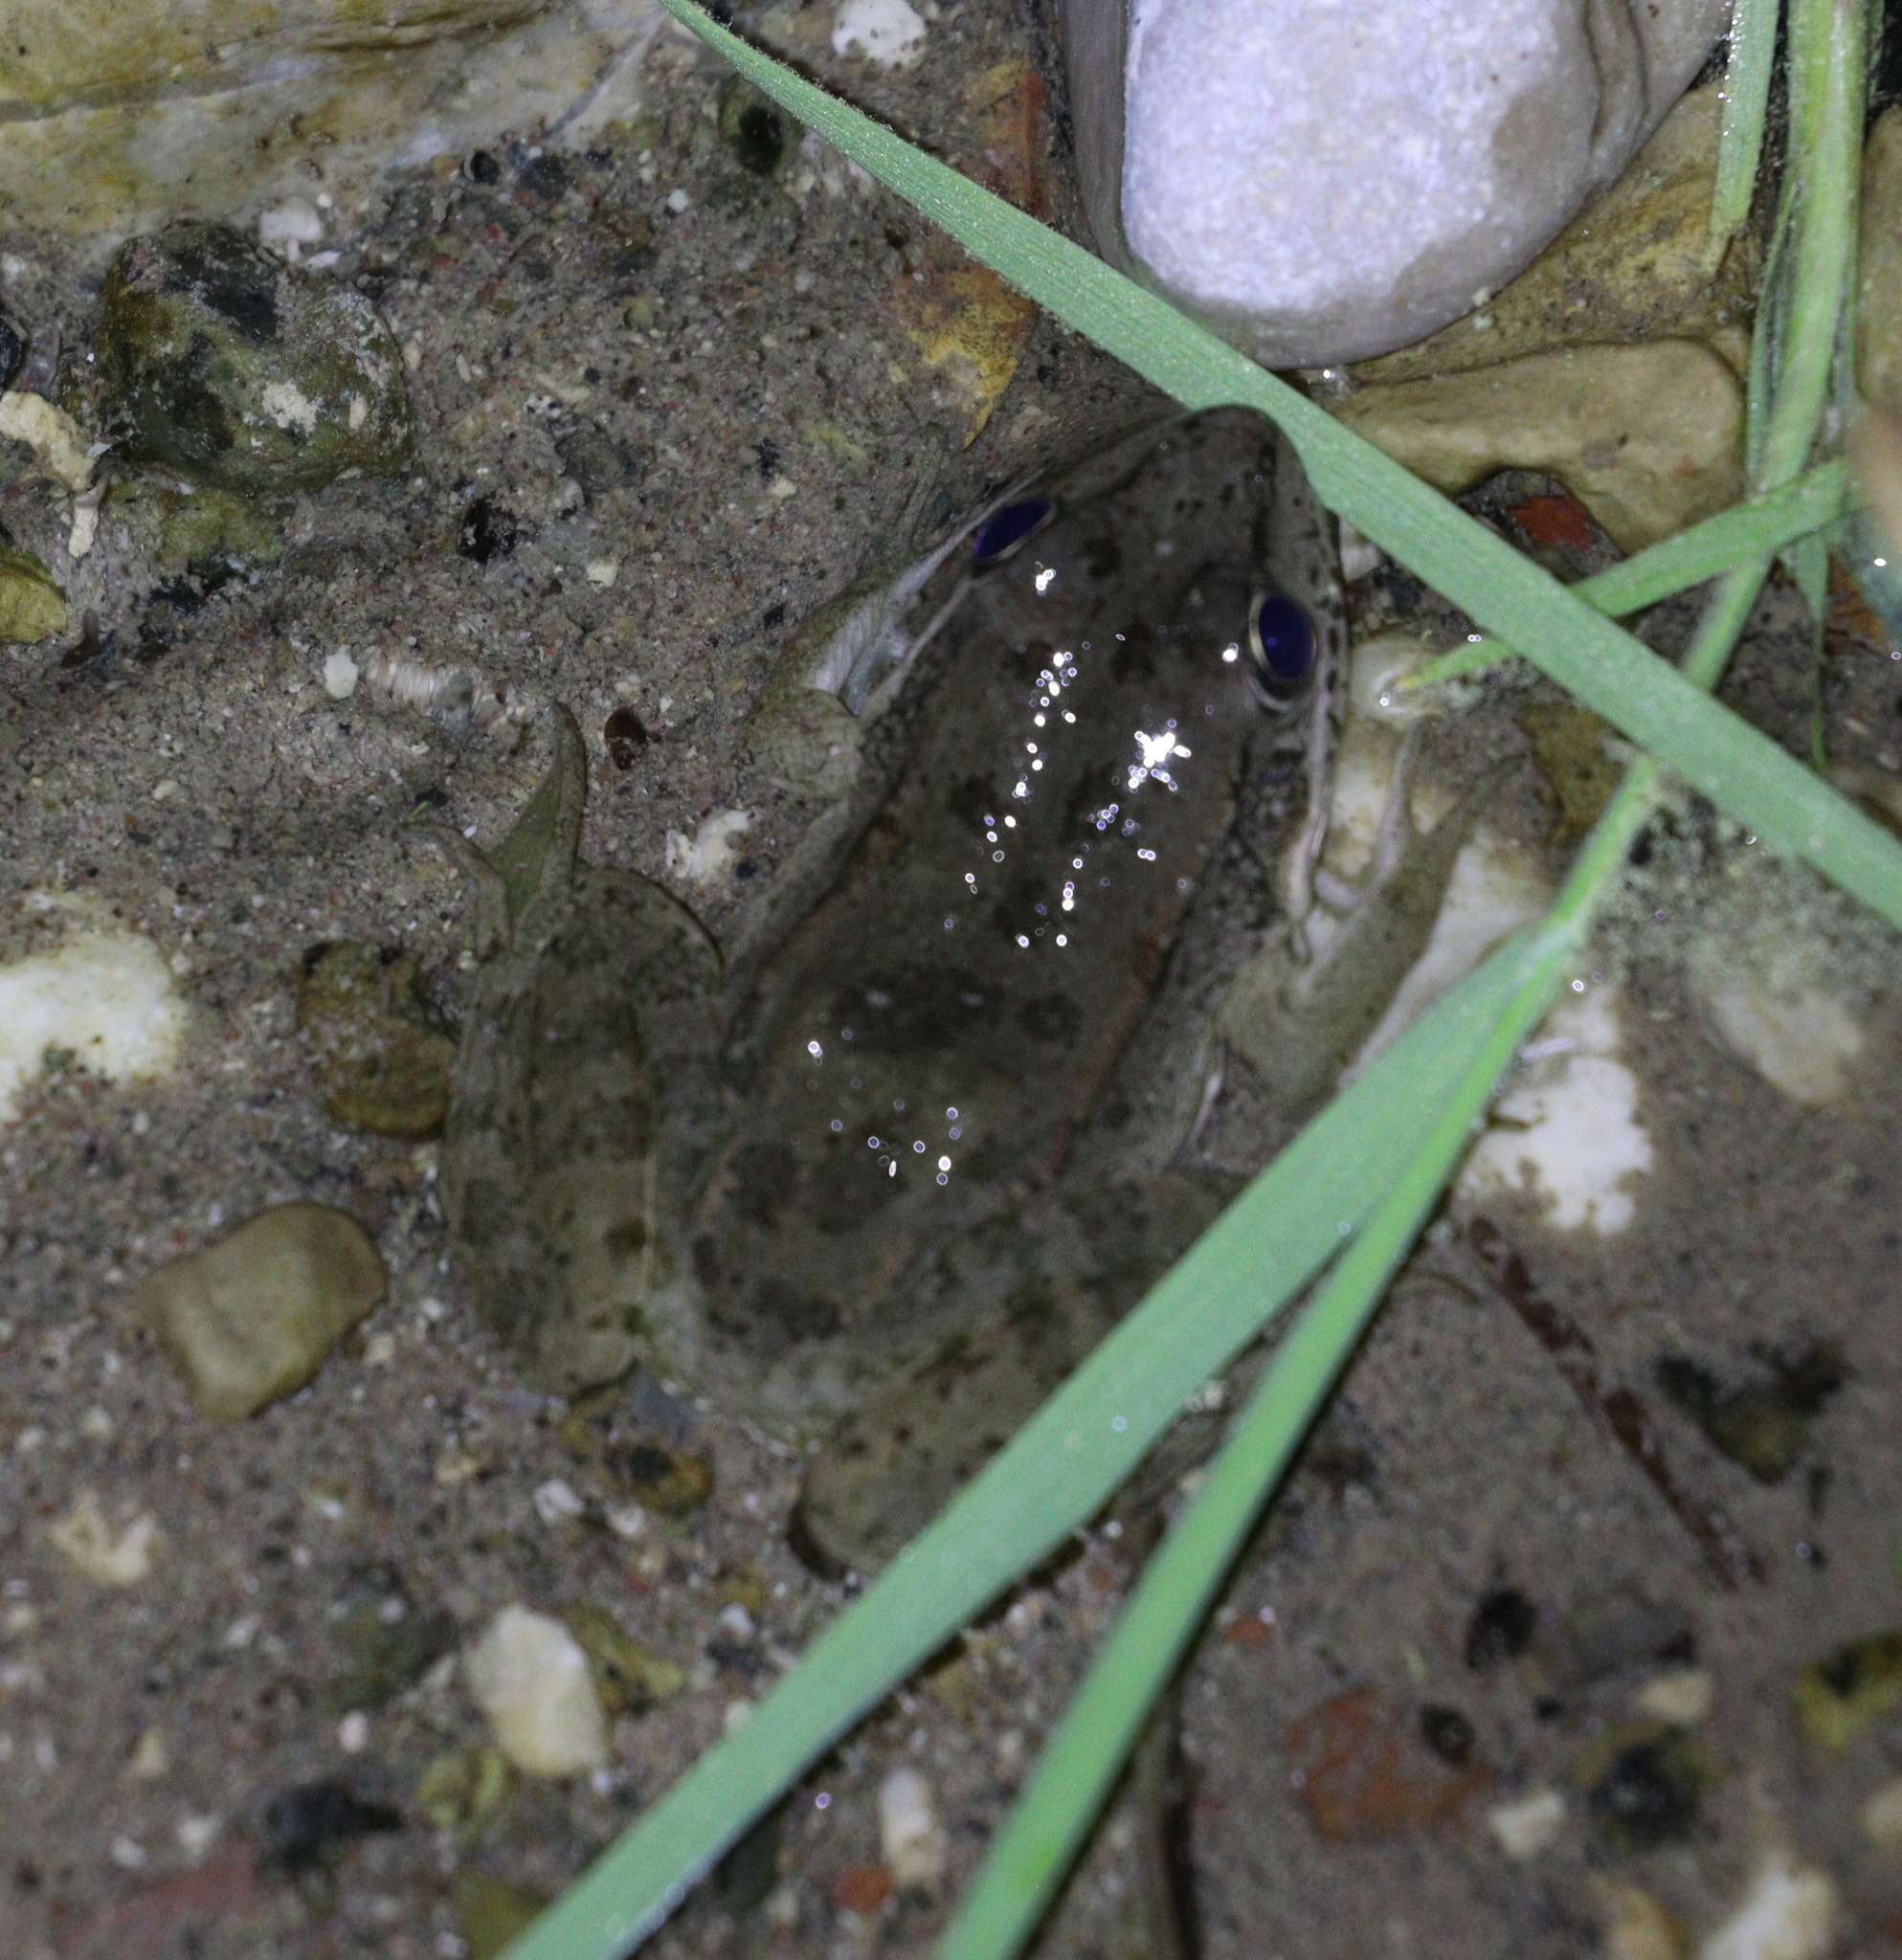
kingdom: Animalia
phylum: Chordata
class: Amphibia
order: Anura
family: Ranidae
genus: Pelophylax
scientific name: Pelophylax ridibundus
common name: Marsh frog
